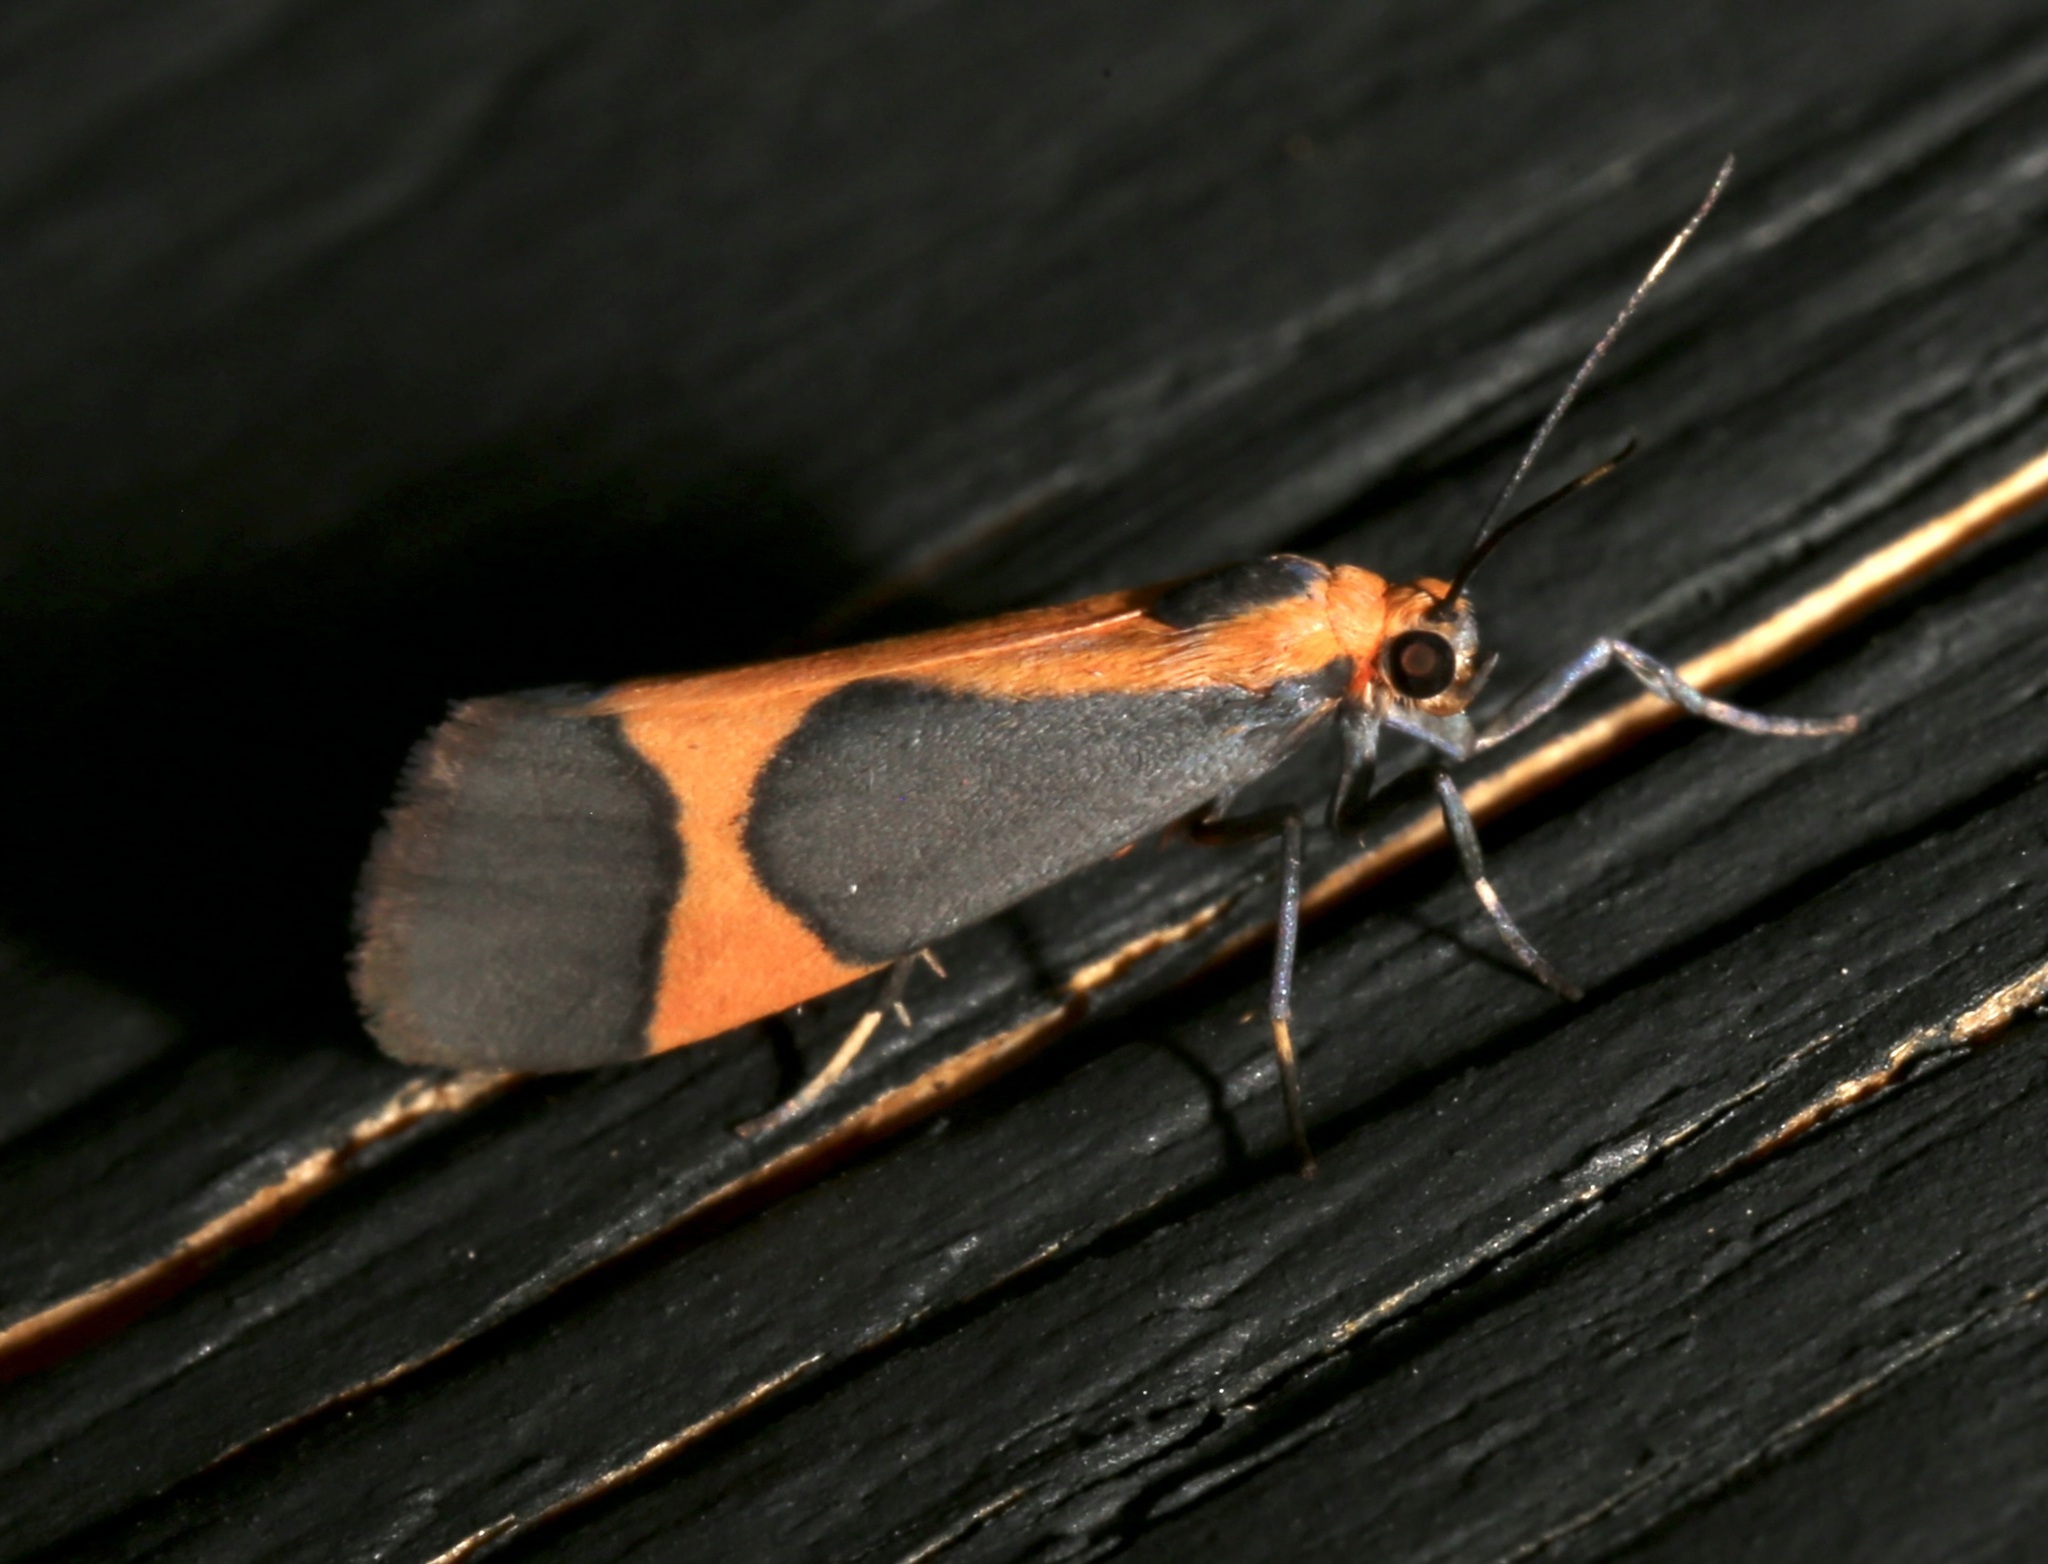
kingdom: Animalia
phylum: Arthropoda
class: Insecta
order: Lepidoptera
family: Erebidae
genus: Cisthene
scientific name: Cisthene martini
